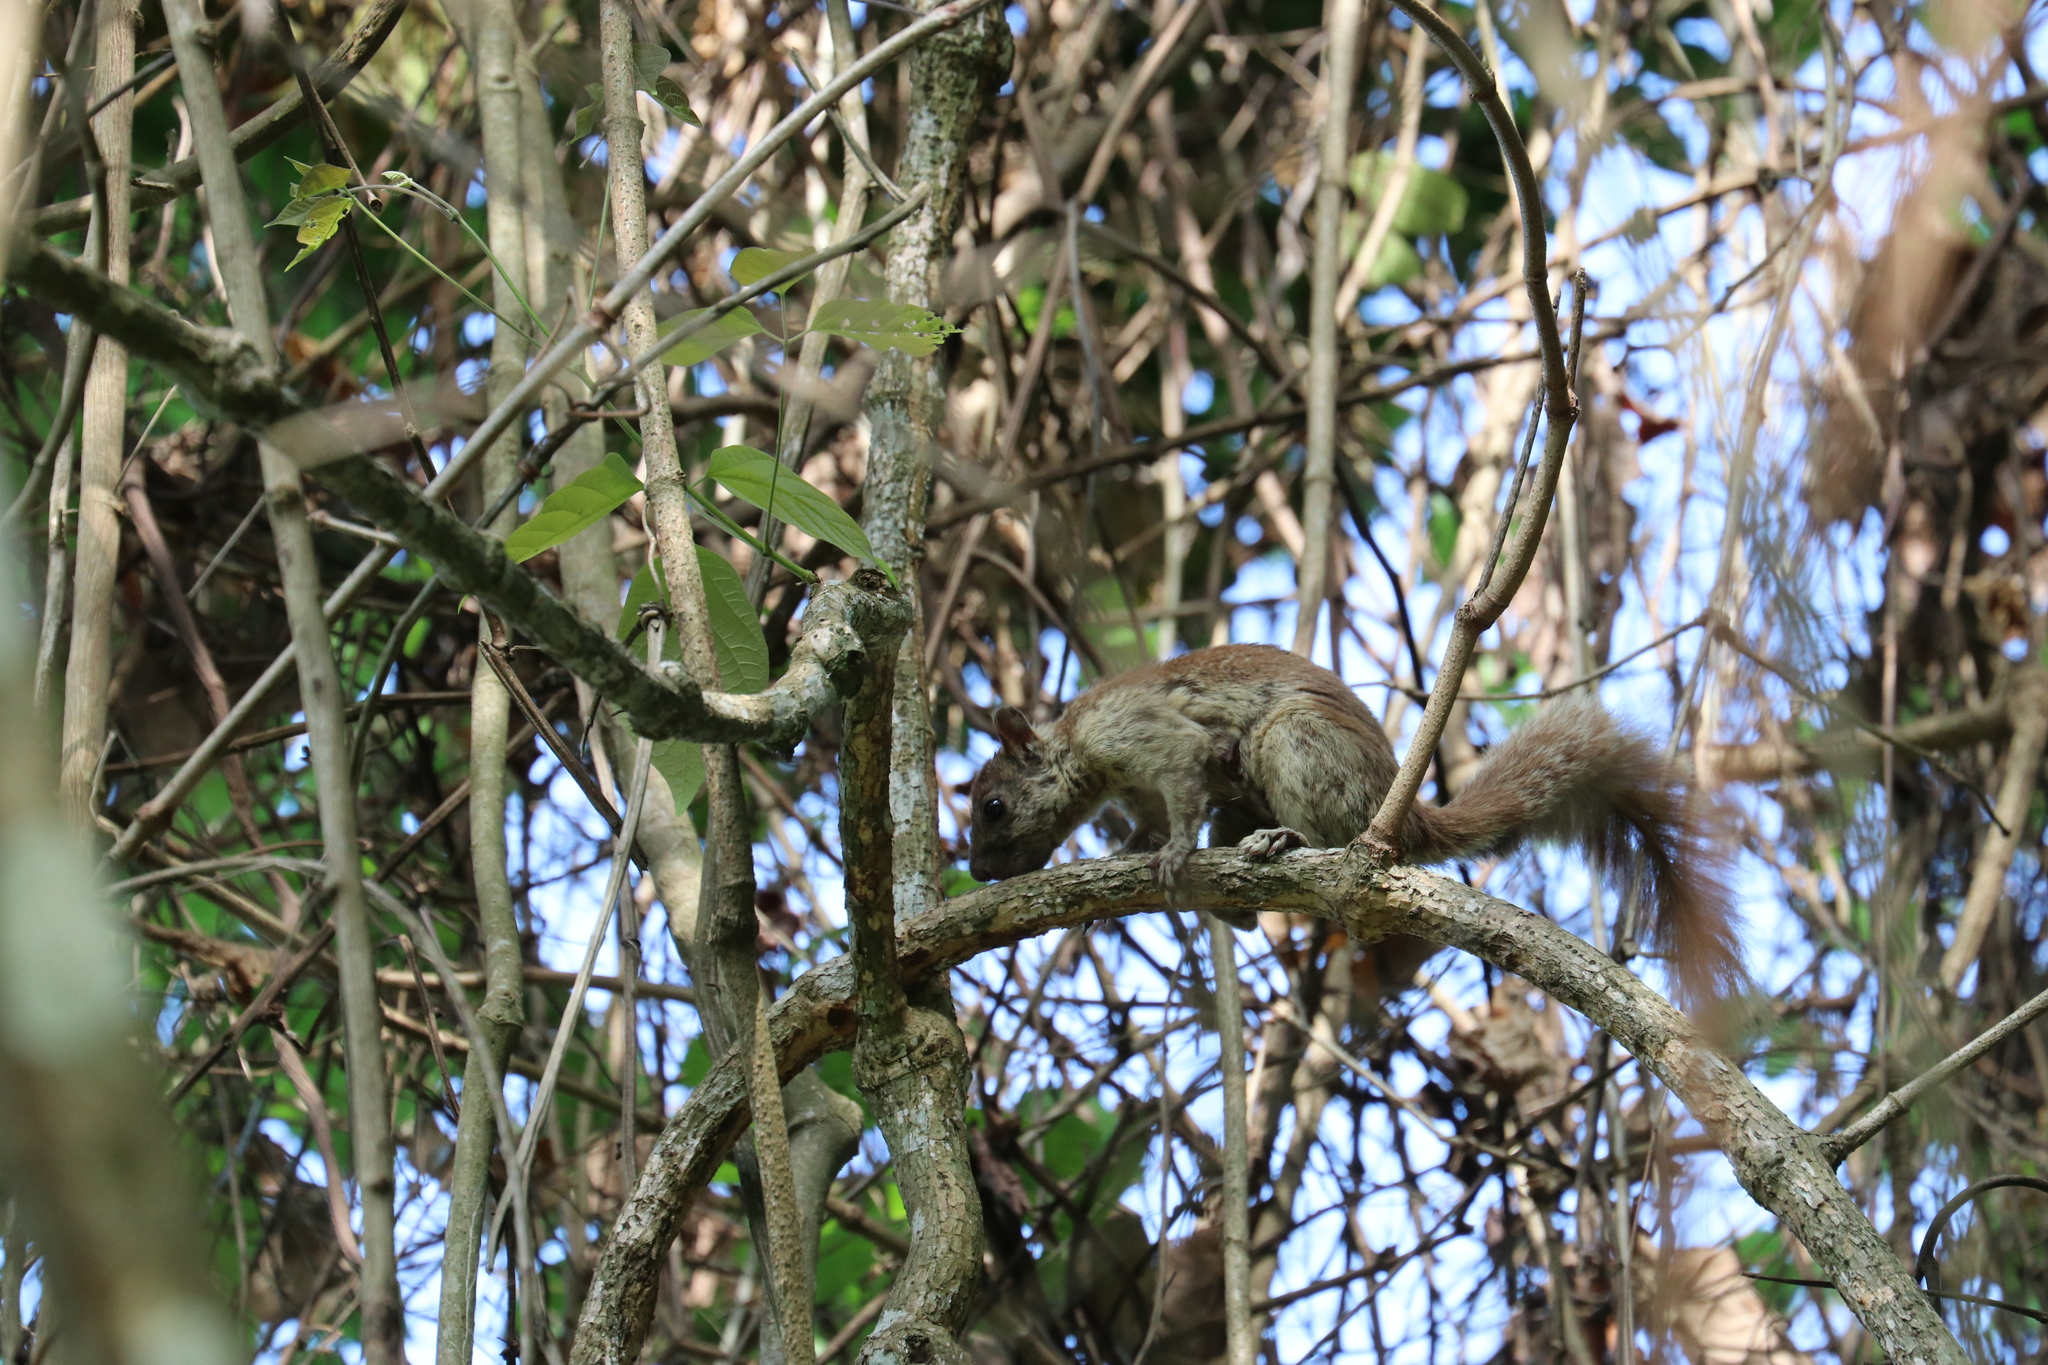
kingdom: Animalia
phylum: Chordata
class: Mammalia
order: Rodentia
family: Sciuridae
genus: Sciurus
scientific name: Sciurus variegatoides
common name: Variegated squirrel
